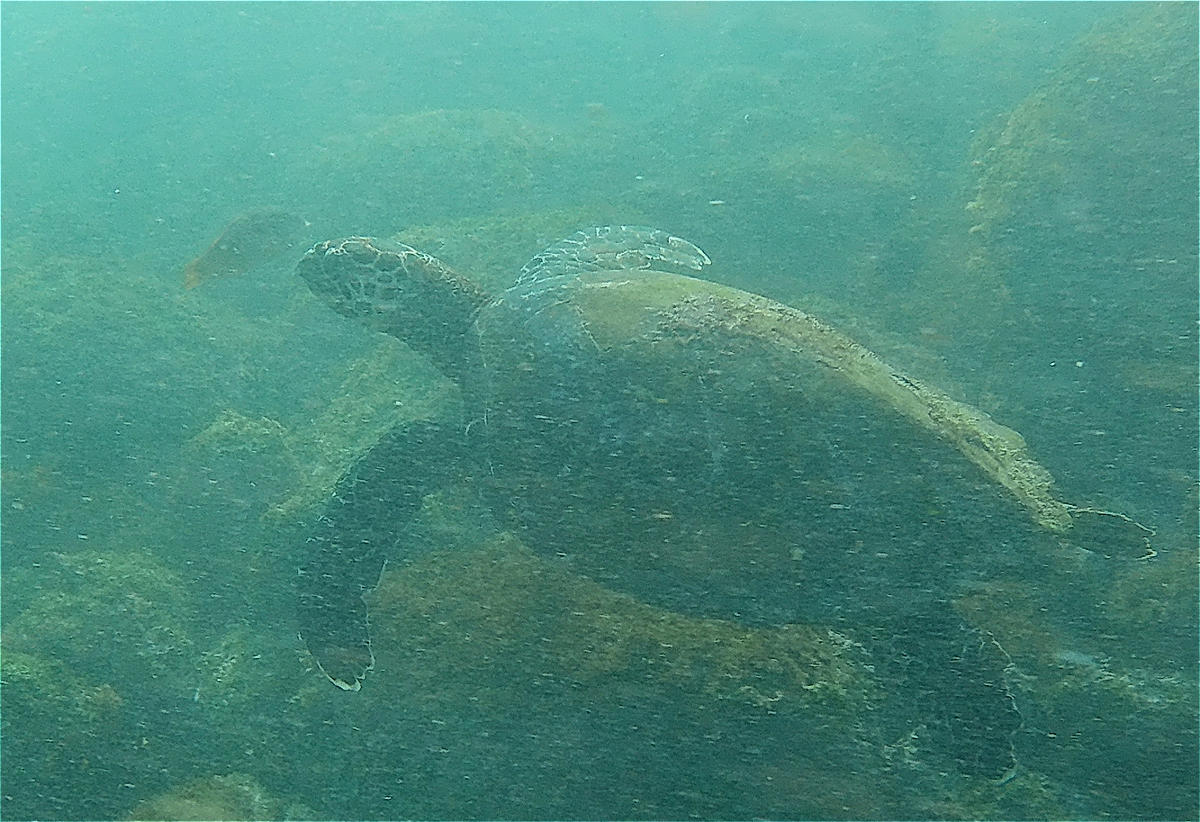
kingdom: Animalia
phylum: Chordata
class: Testudines
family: Cheloniidae
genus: Eretmochelys
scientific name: Eretmochelys imbricata
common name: Hawksbill turtle
